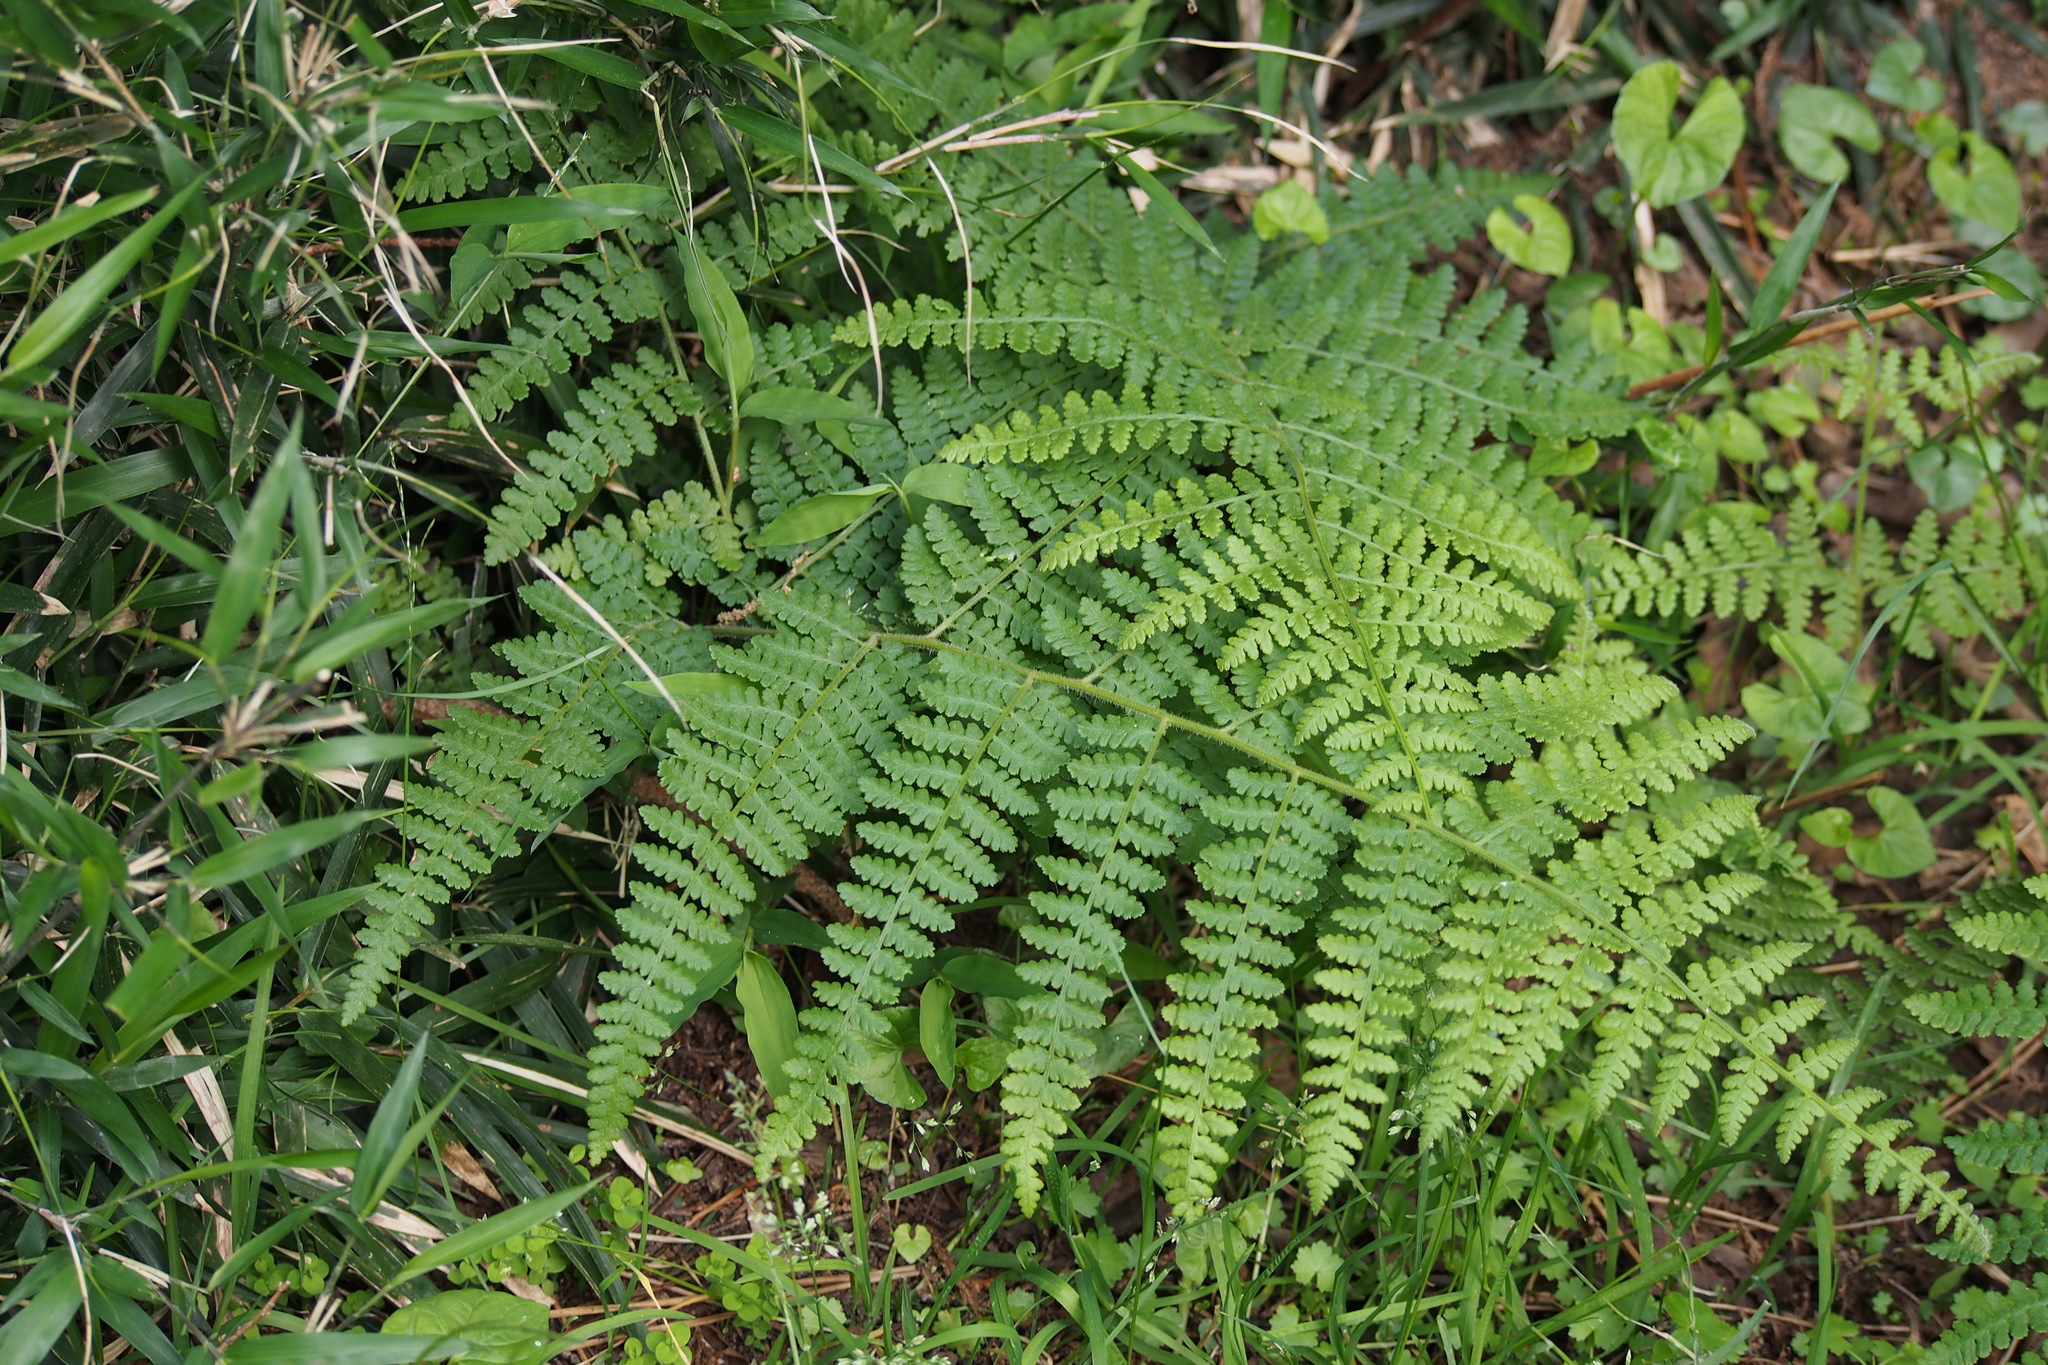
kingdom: Plantae
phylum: Tracheophyta
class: Polypodiopsida
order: Polypodiales
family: Dennstaedtiaceae
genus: Hypolepis
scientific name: Hypolepis punctata
